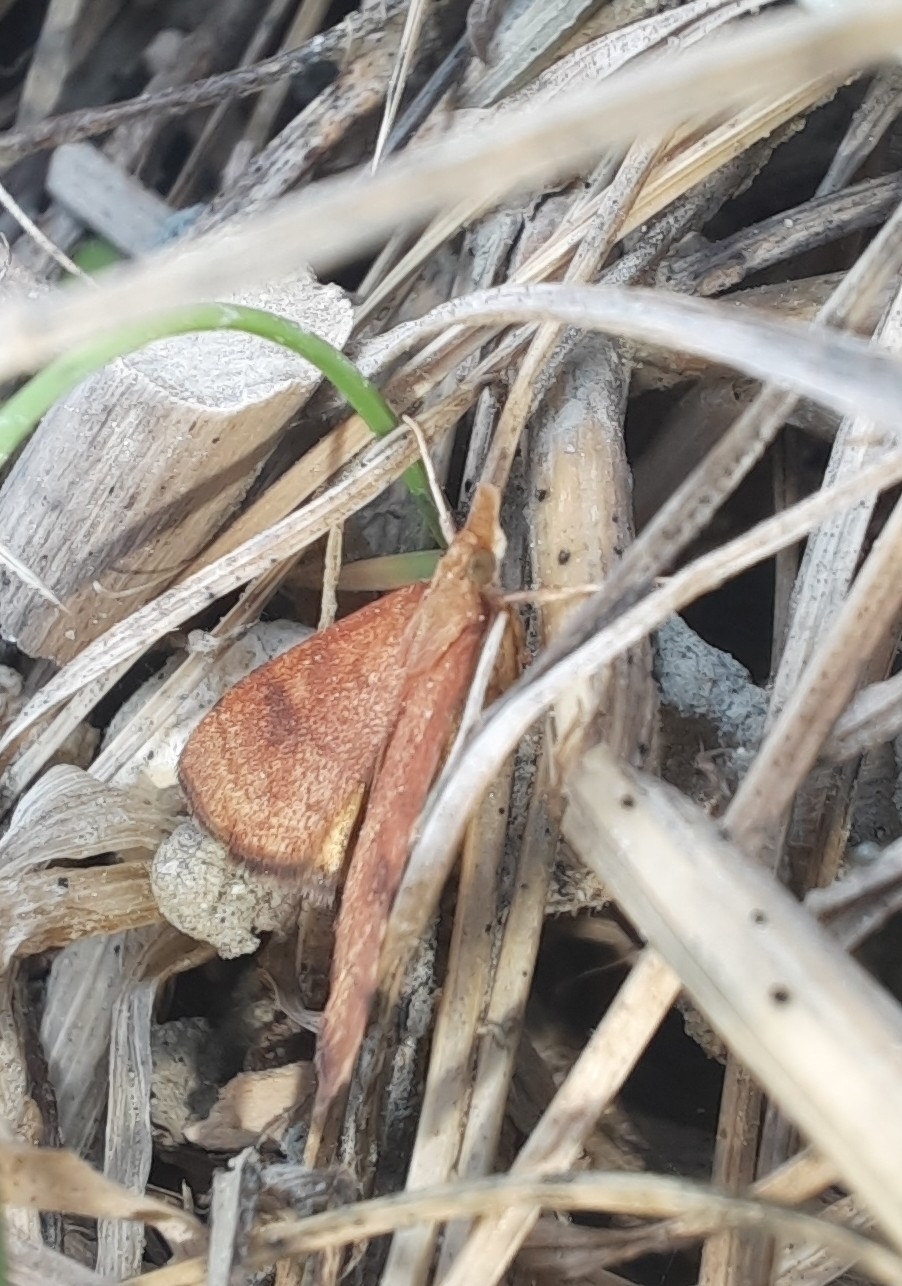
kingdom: Animalia
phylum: Arthropoda
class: Insecta
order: Lepidoptera
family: Crambidae
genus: Udea
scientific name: Udea Mnesictena flavidalis
